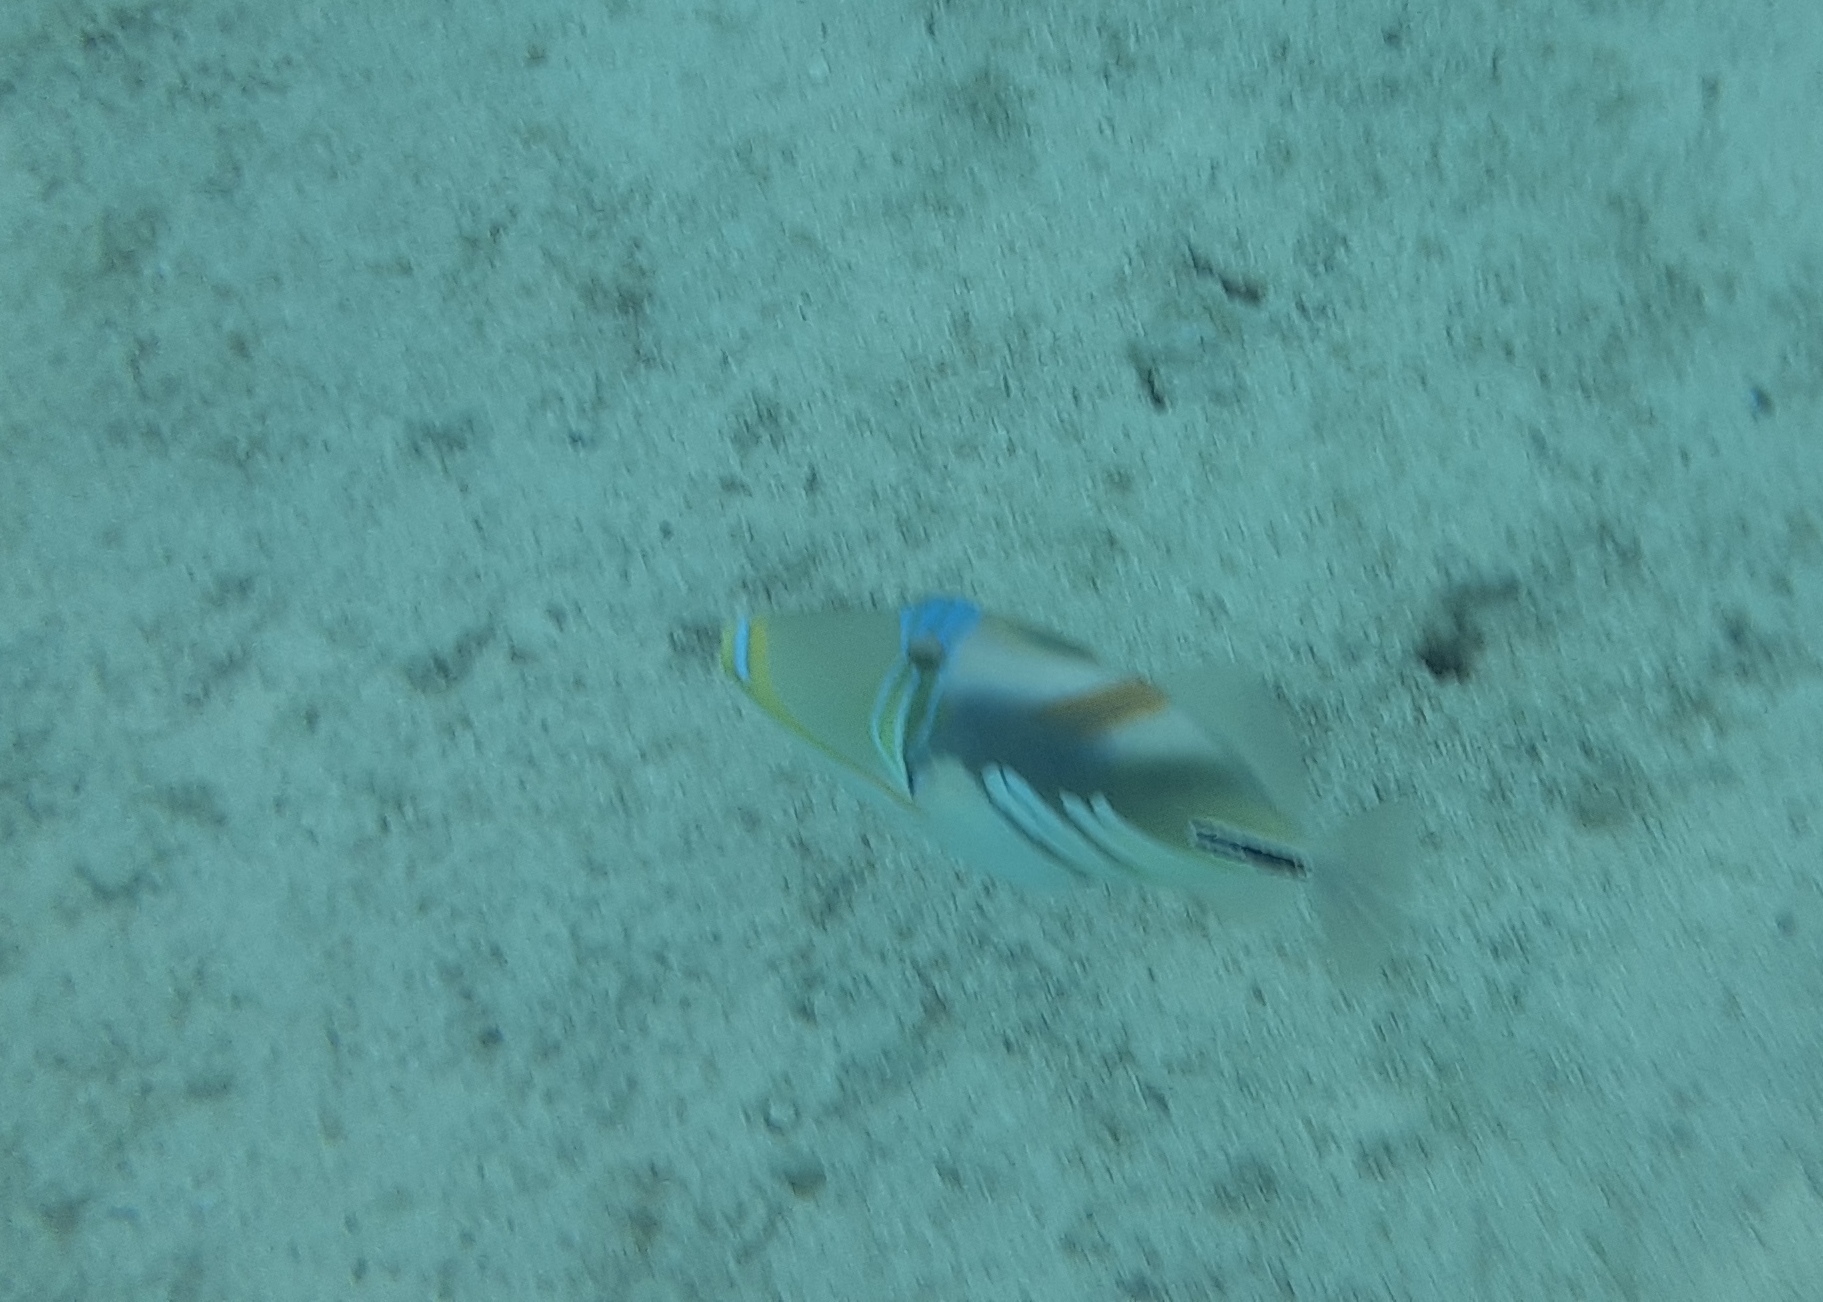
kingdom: Animalia
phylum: Chordata
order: Tetraodontiformes
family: Balistidae
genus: Rhinecanthus
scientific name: Rhinecanthus aculeatus
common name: White-banded triggerfish
